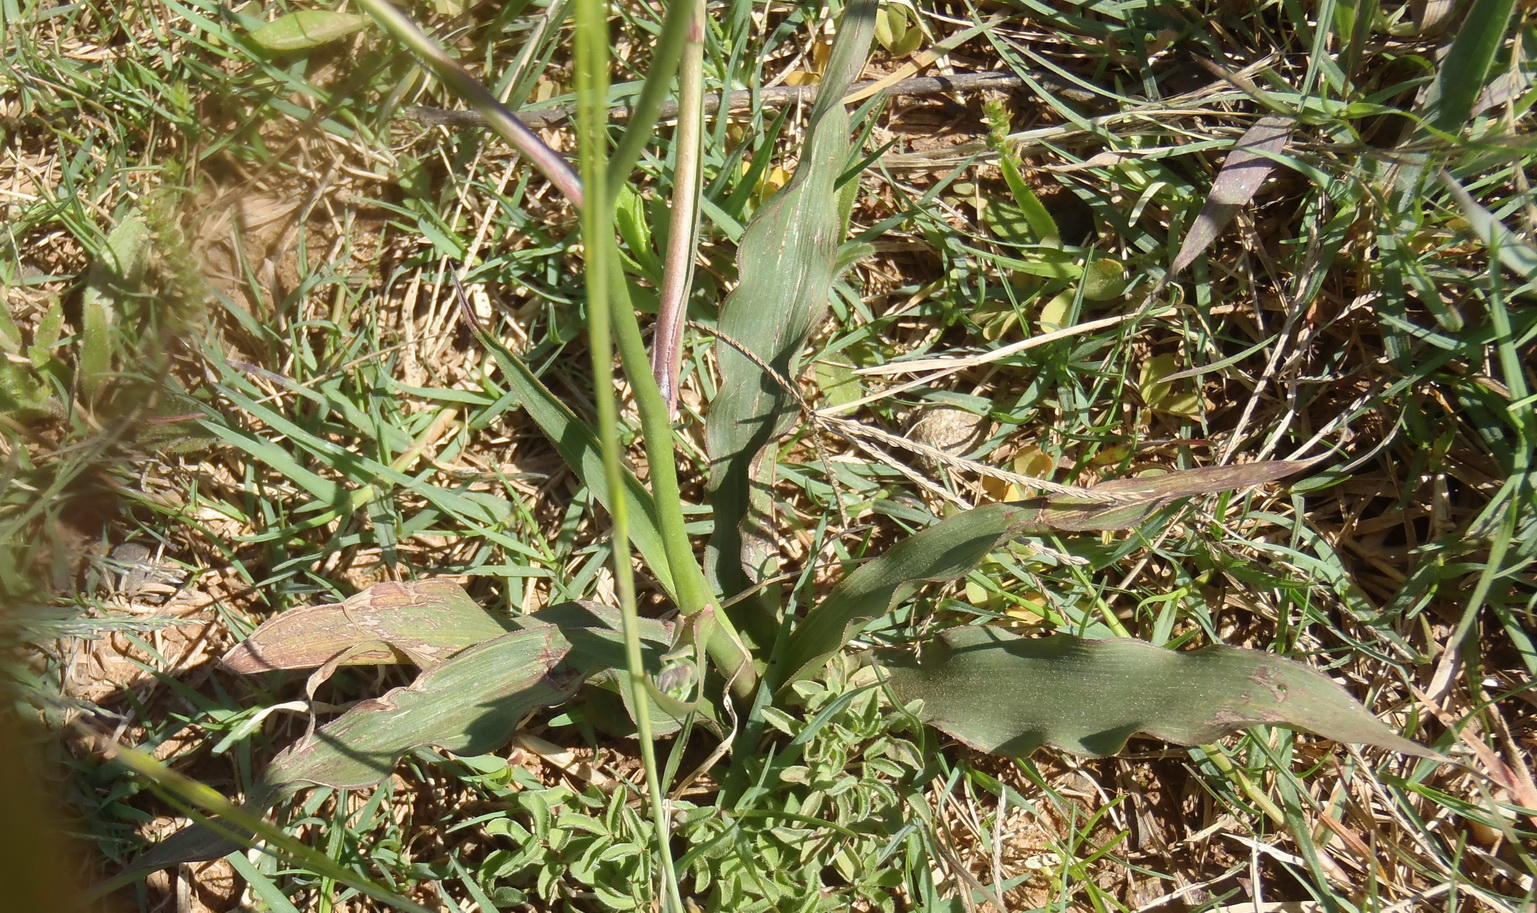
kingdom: Plantae
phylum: Tracheophyta
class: Liliopsida
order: Asparagales
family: Tecophilaeaceae
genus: Cyanella
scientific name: Cyanella hyacinthoides
